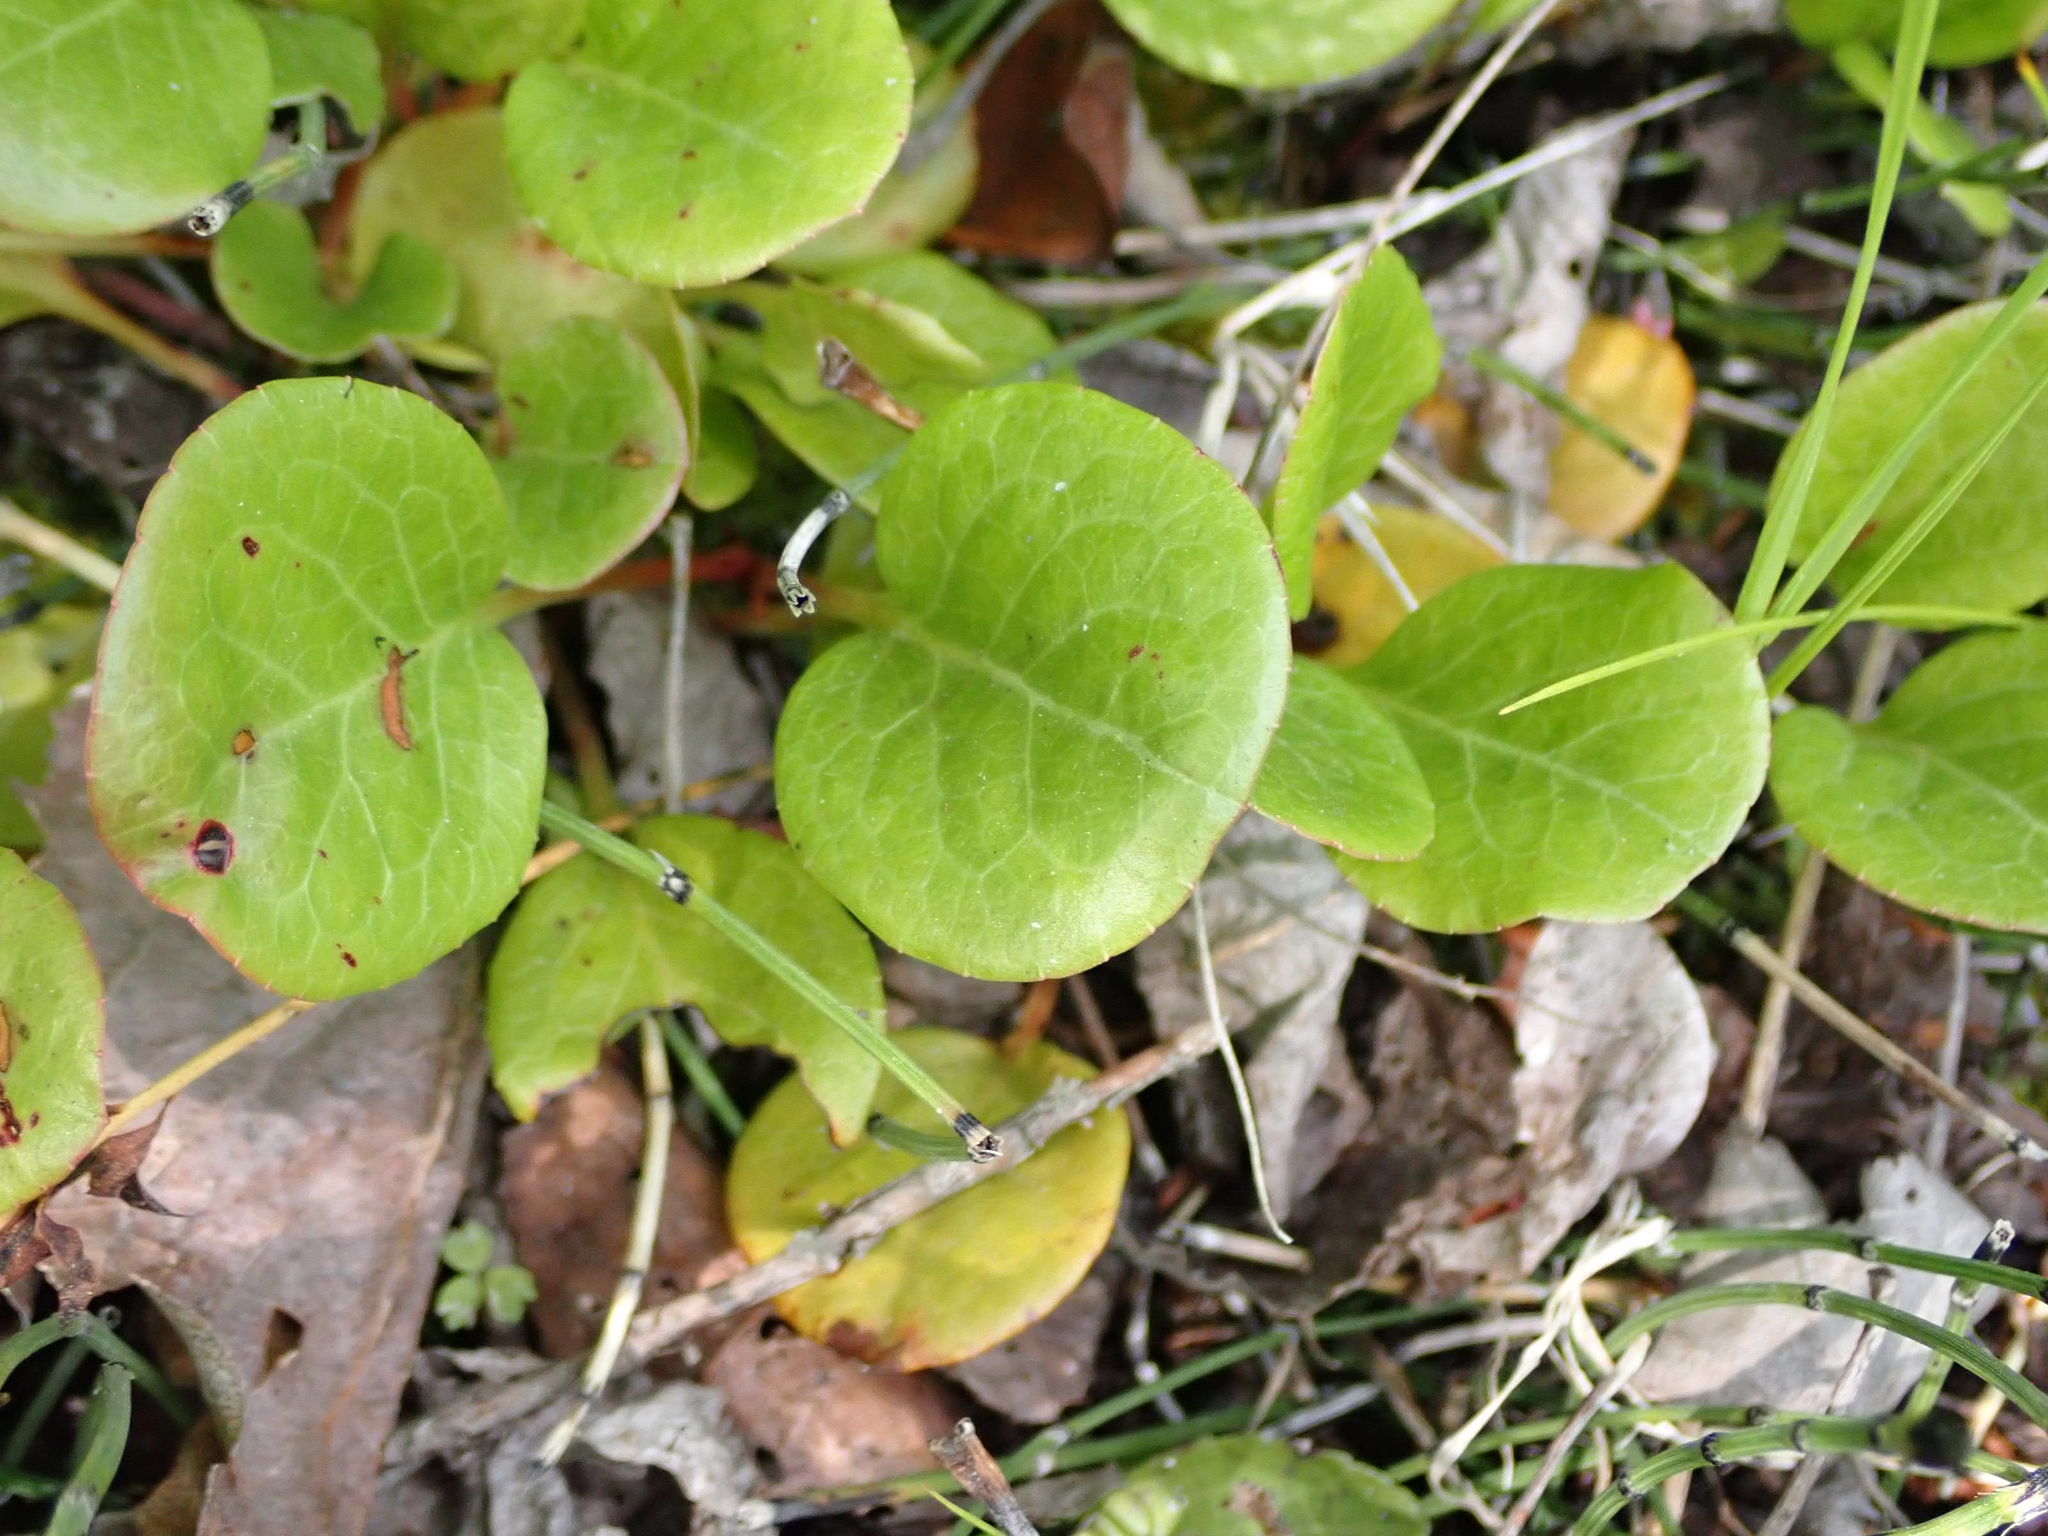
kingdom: Plantae
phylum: Tracheophyta
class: Magnoliopsida
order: Ericales
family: Ericaceae
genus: Pyrola
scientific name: Pyrola asarifolia
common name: Bog wintergreen
